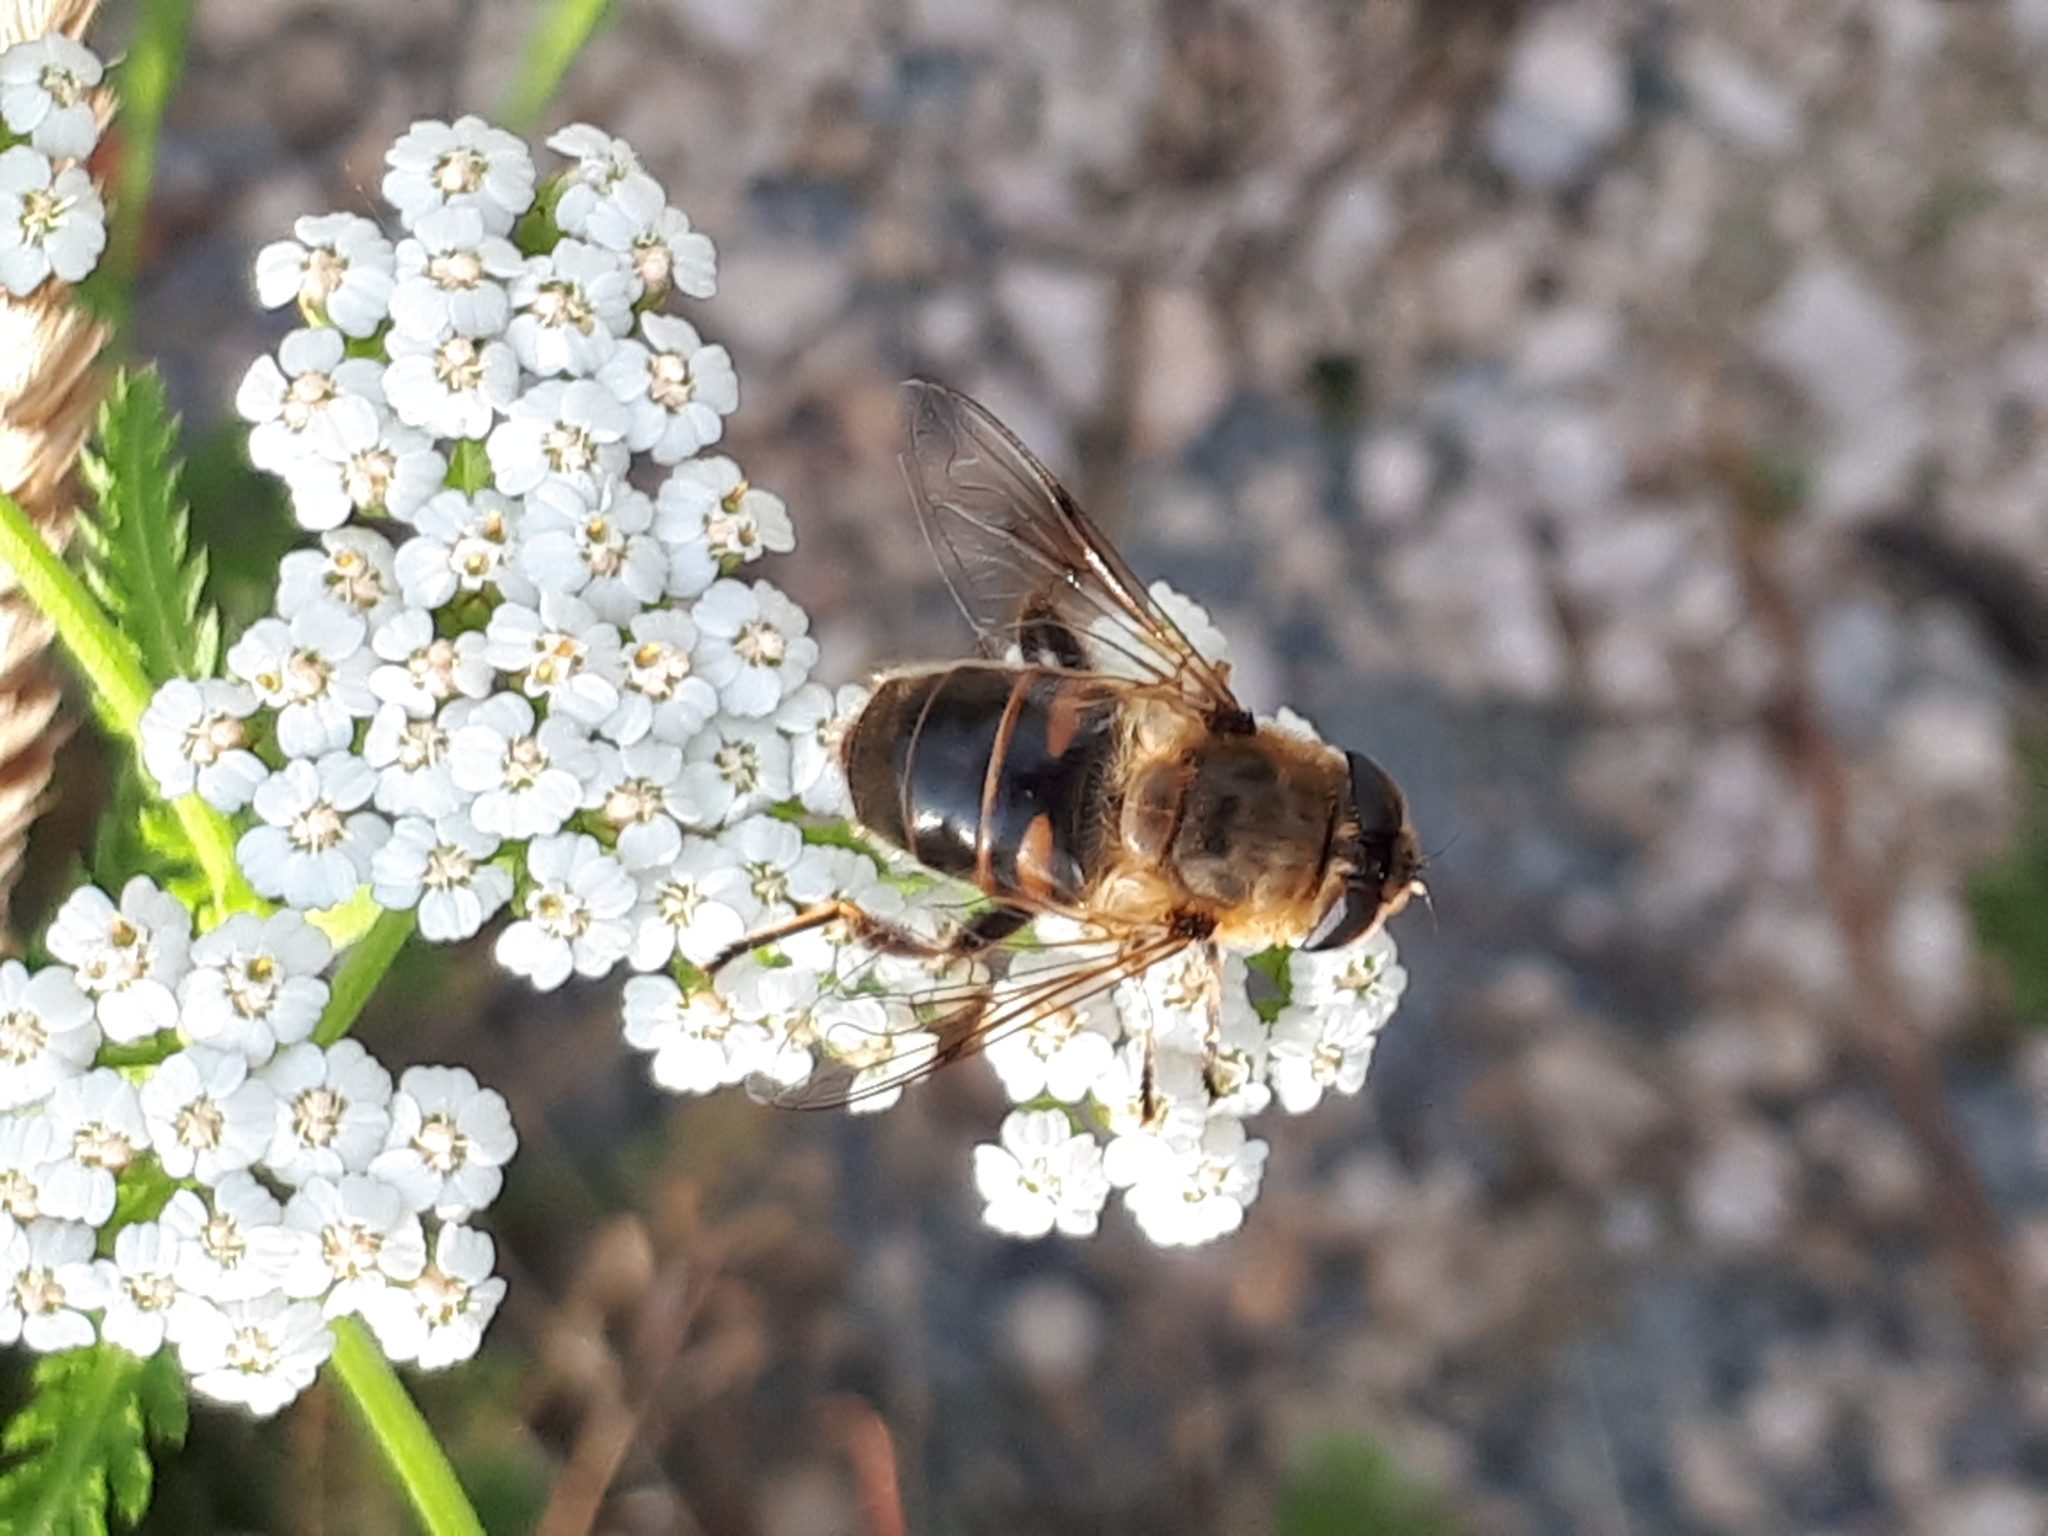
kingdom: Animalia
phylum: Arthropoda
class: Insecta
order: Diptera
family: Syrphidae
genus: Eristalis
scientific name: Eristalis tenax
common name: Drone fly
